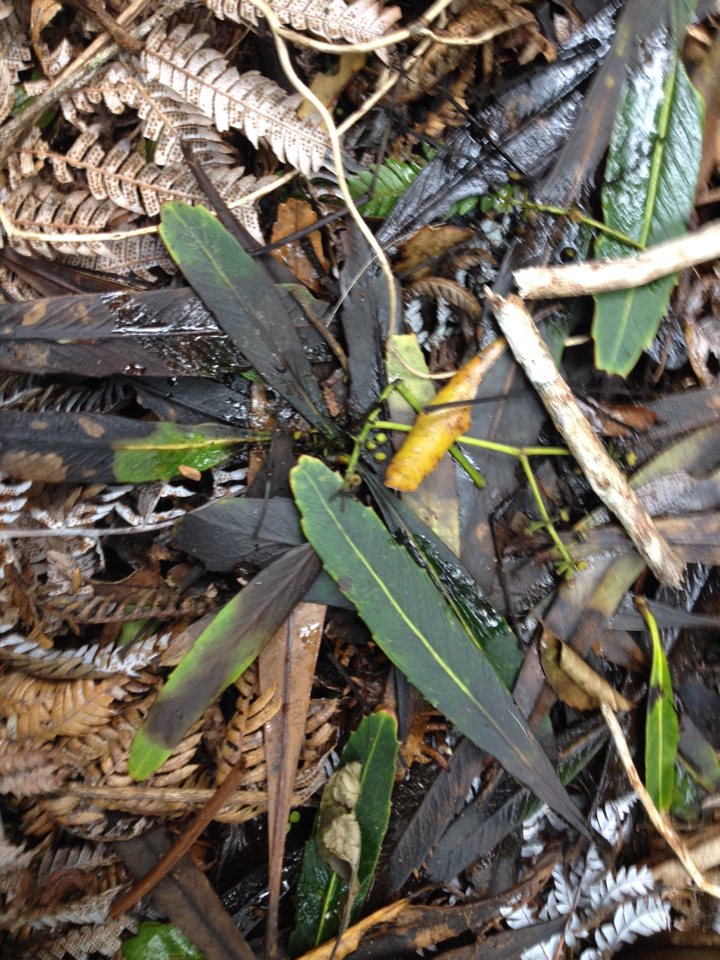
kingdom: Plantae
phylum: Tracheophyta
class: Magnoliopsida
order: Apiales
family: Araliaceae
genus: Pseudopanax
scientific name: Pseudopanax crassifolius
